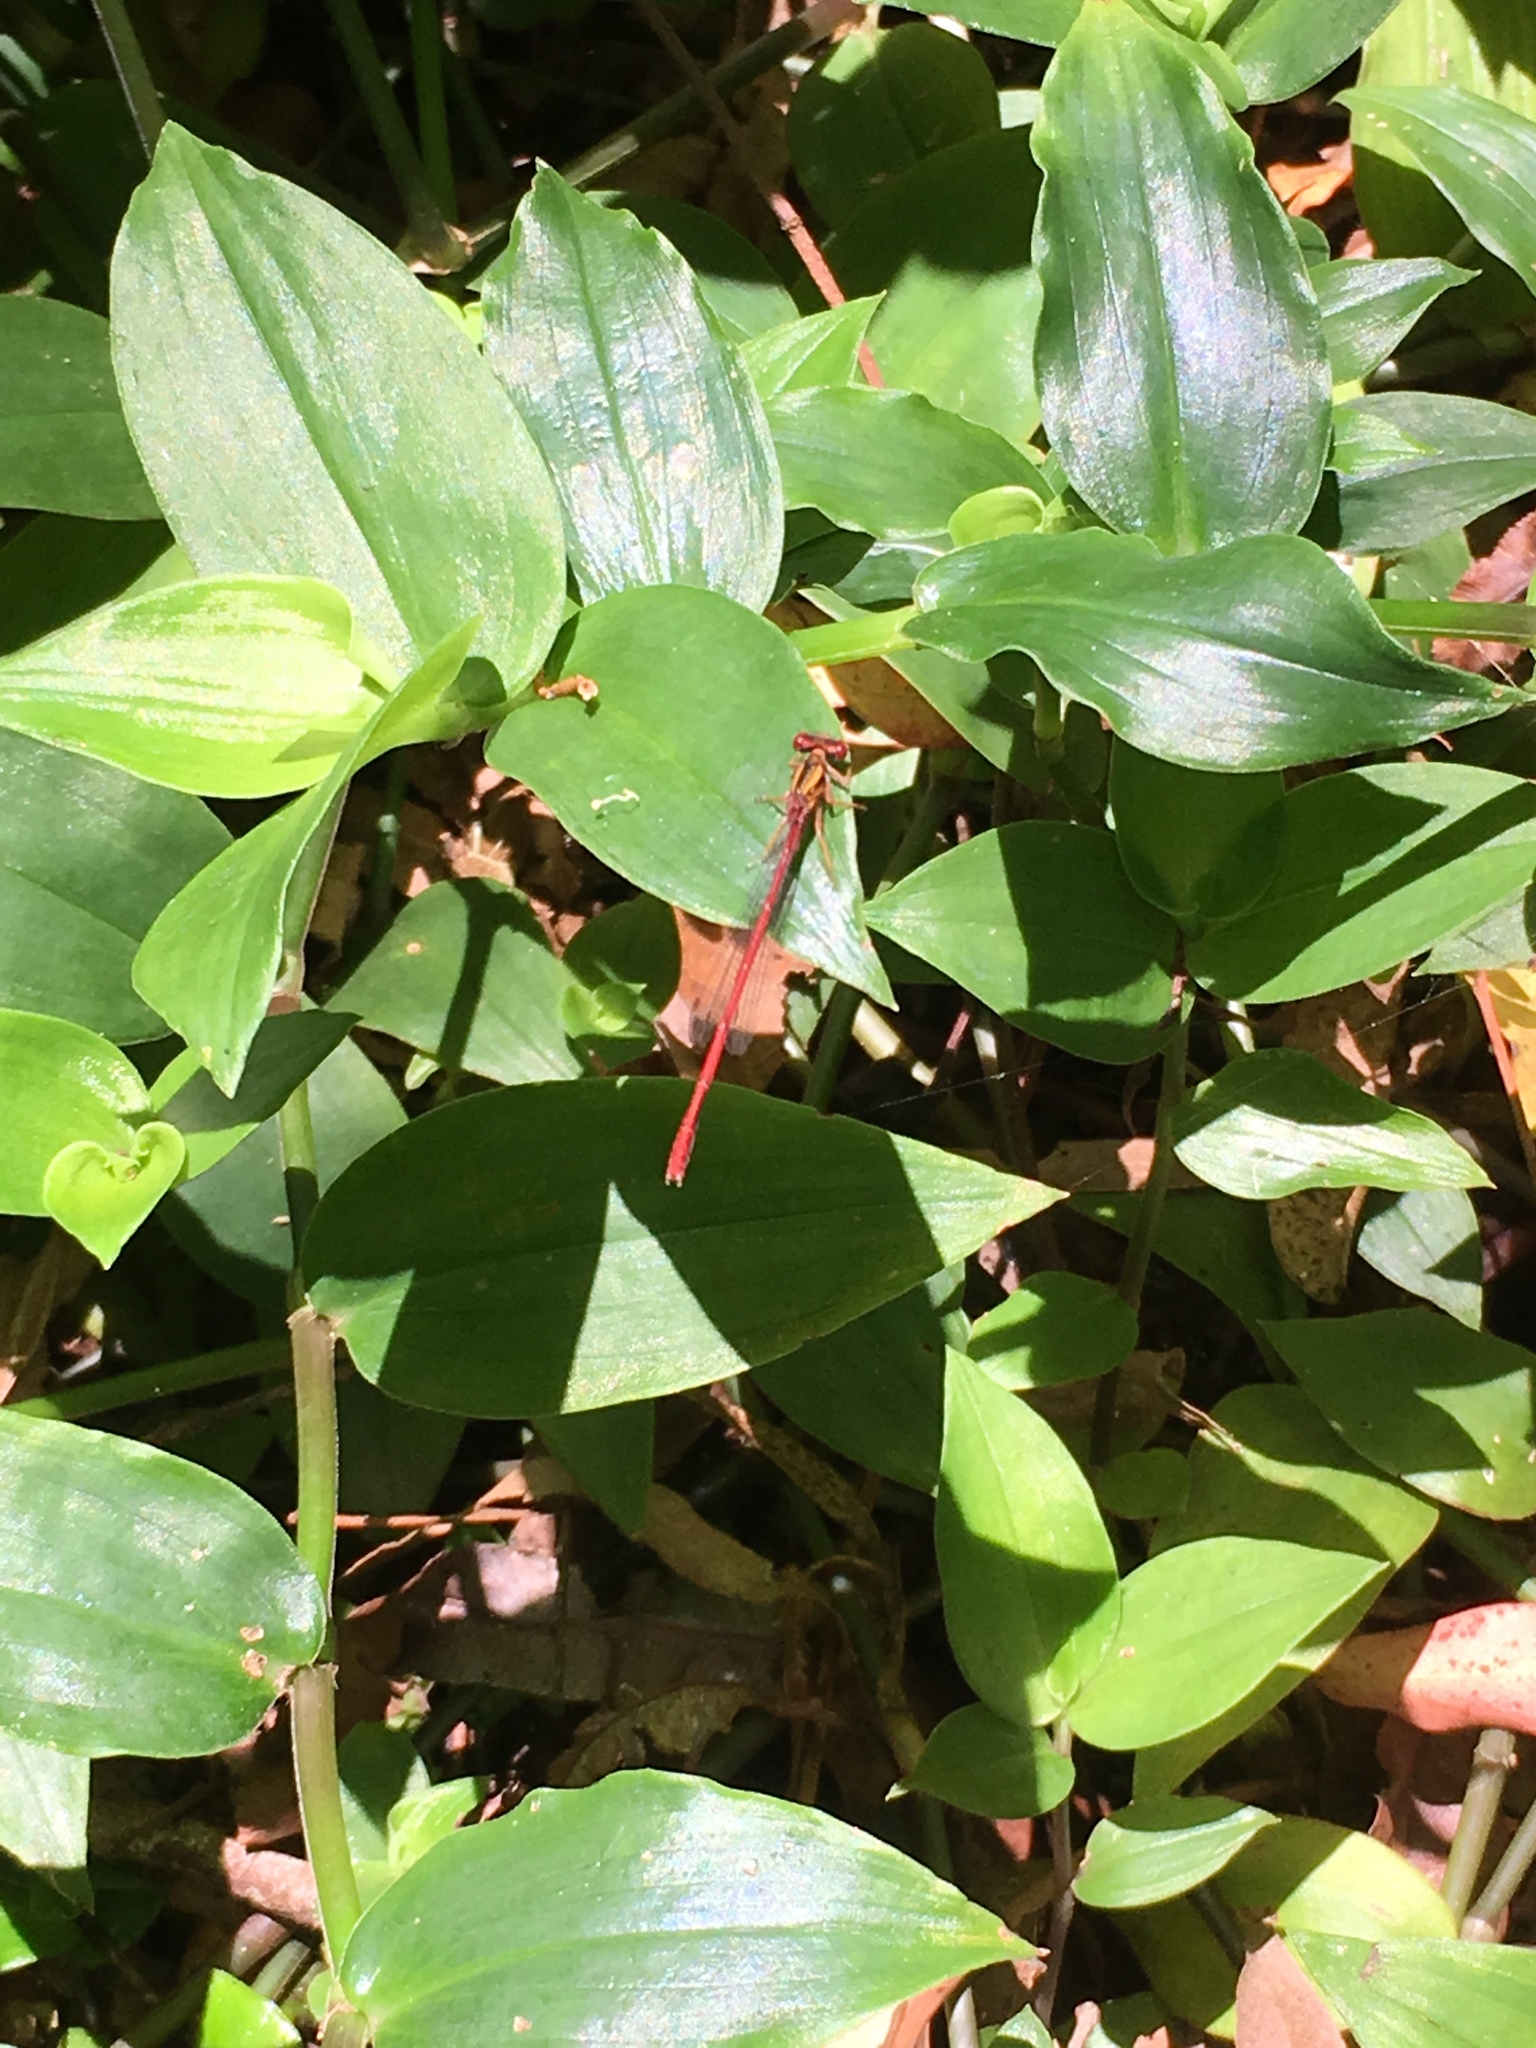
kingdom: Animalia
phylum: Arthropoda
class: Insecta
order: Odonata
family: Coenagrionidae
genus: Xanthocnemis
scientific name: Xanthocnemis zealandica
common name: Common redcoat damselfly
